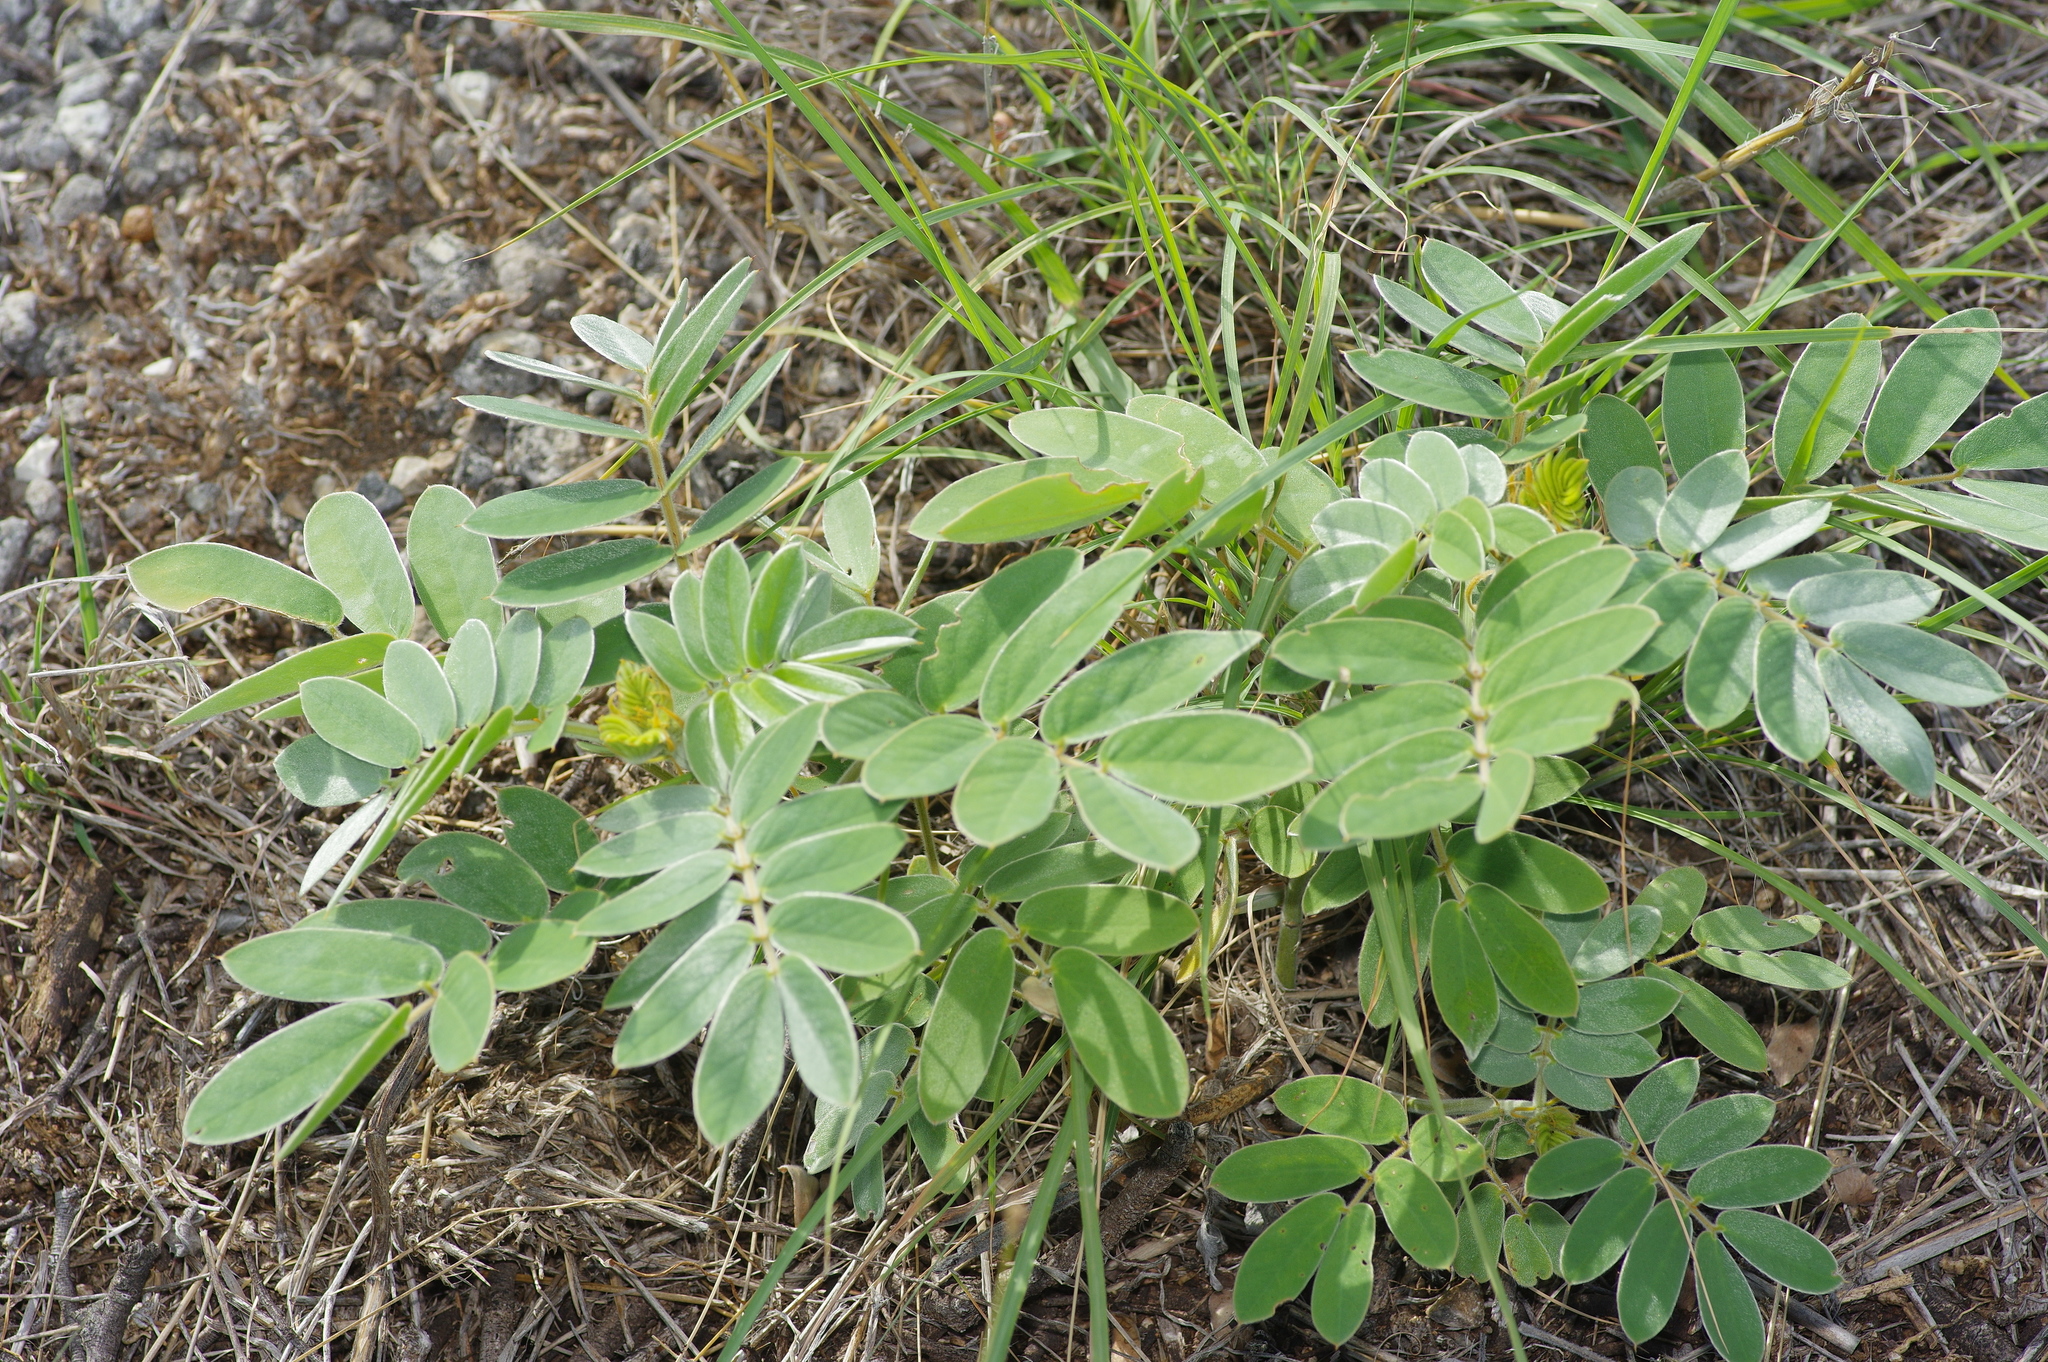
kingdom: Plantae
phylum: Tracheophyta
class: Magnoliopsida
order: Fabales
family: Fabaceae
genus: Senna
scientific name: Senna lindheimeriana
